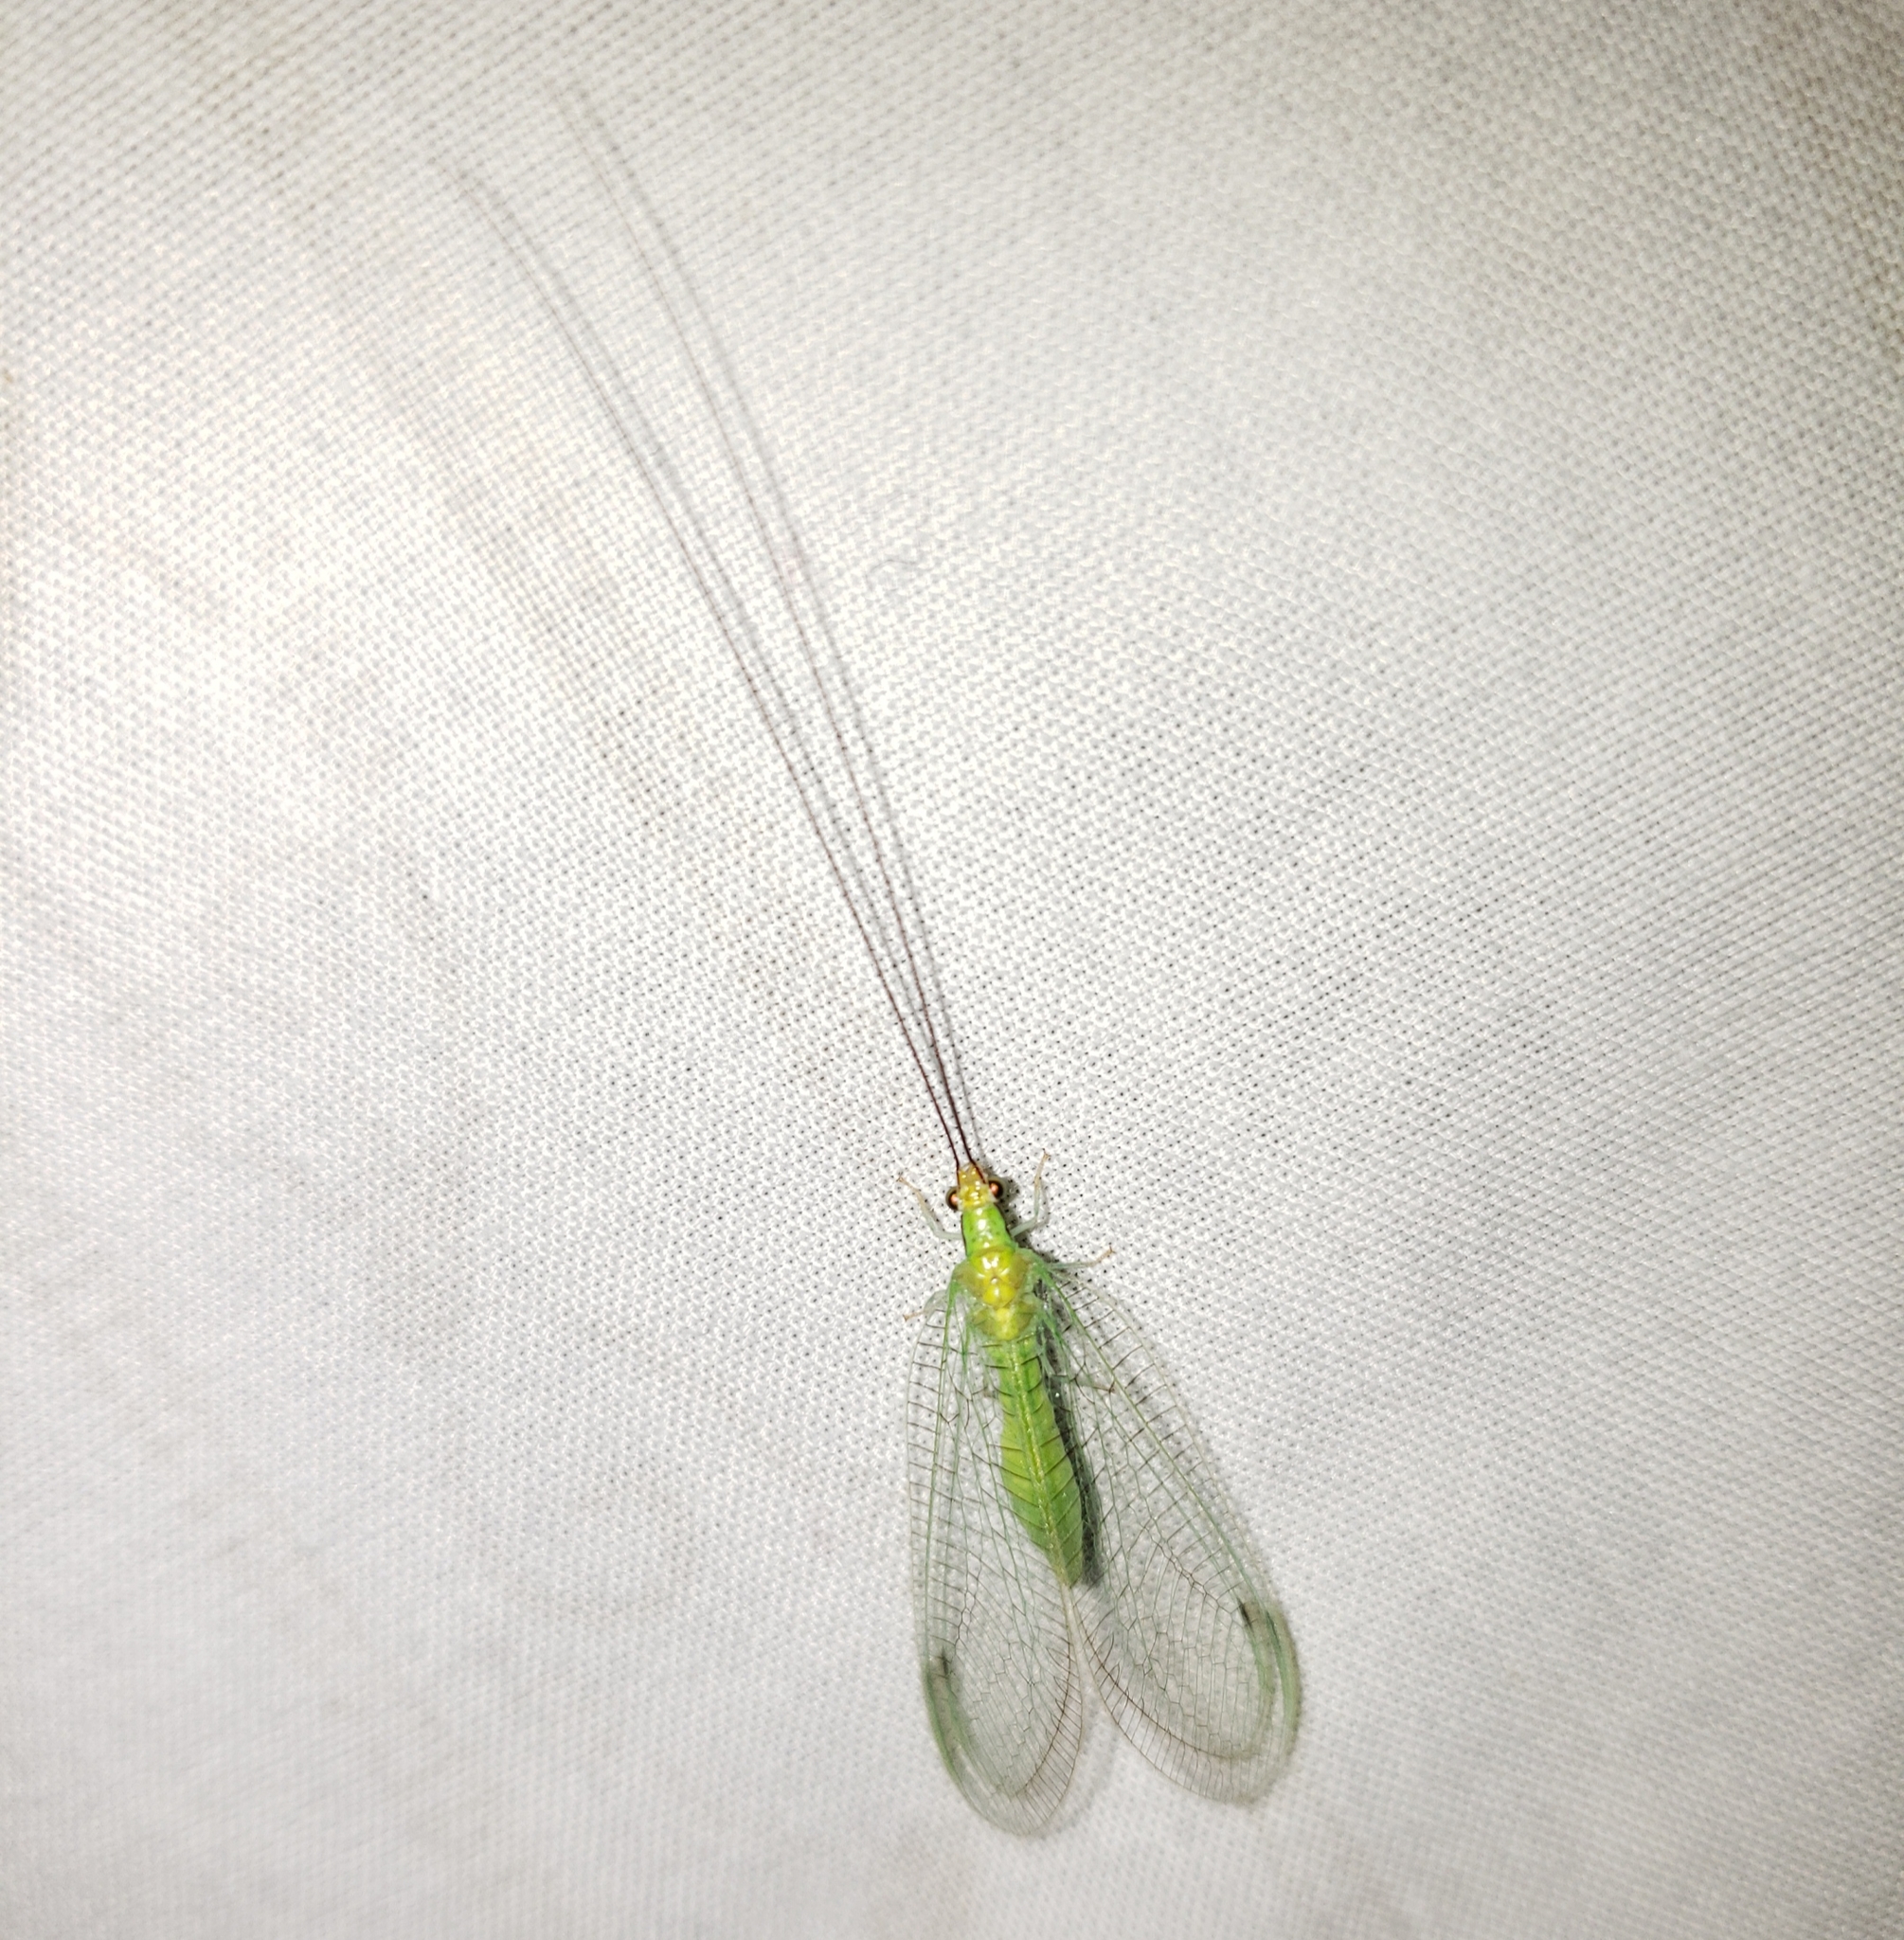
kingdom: Animalia
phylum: Arthropoda
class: Insecta
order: Neuroptera
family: Chrysopidae
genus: Leucochrysa
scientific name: Leucochrysa pavida
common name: Lichen-carrying green lacewing
